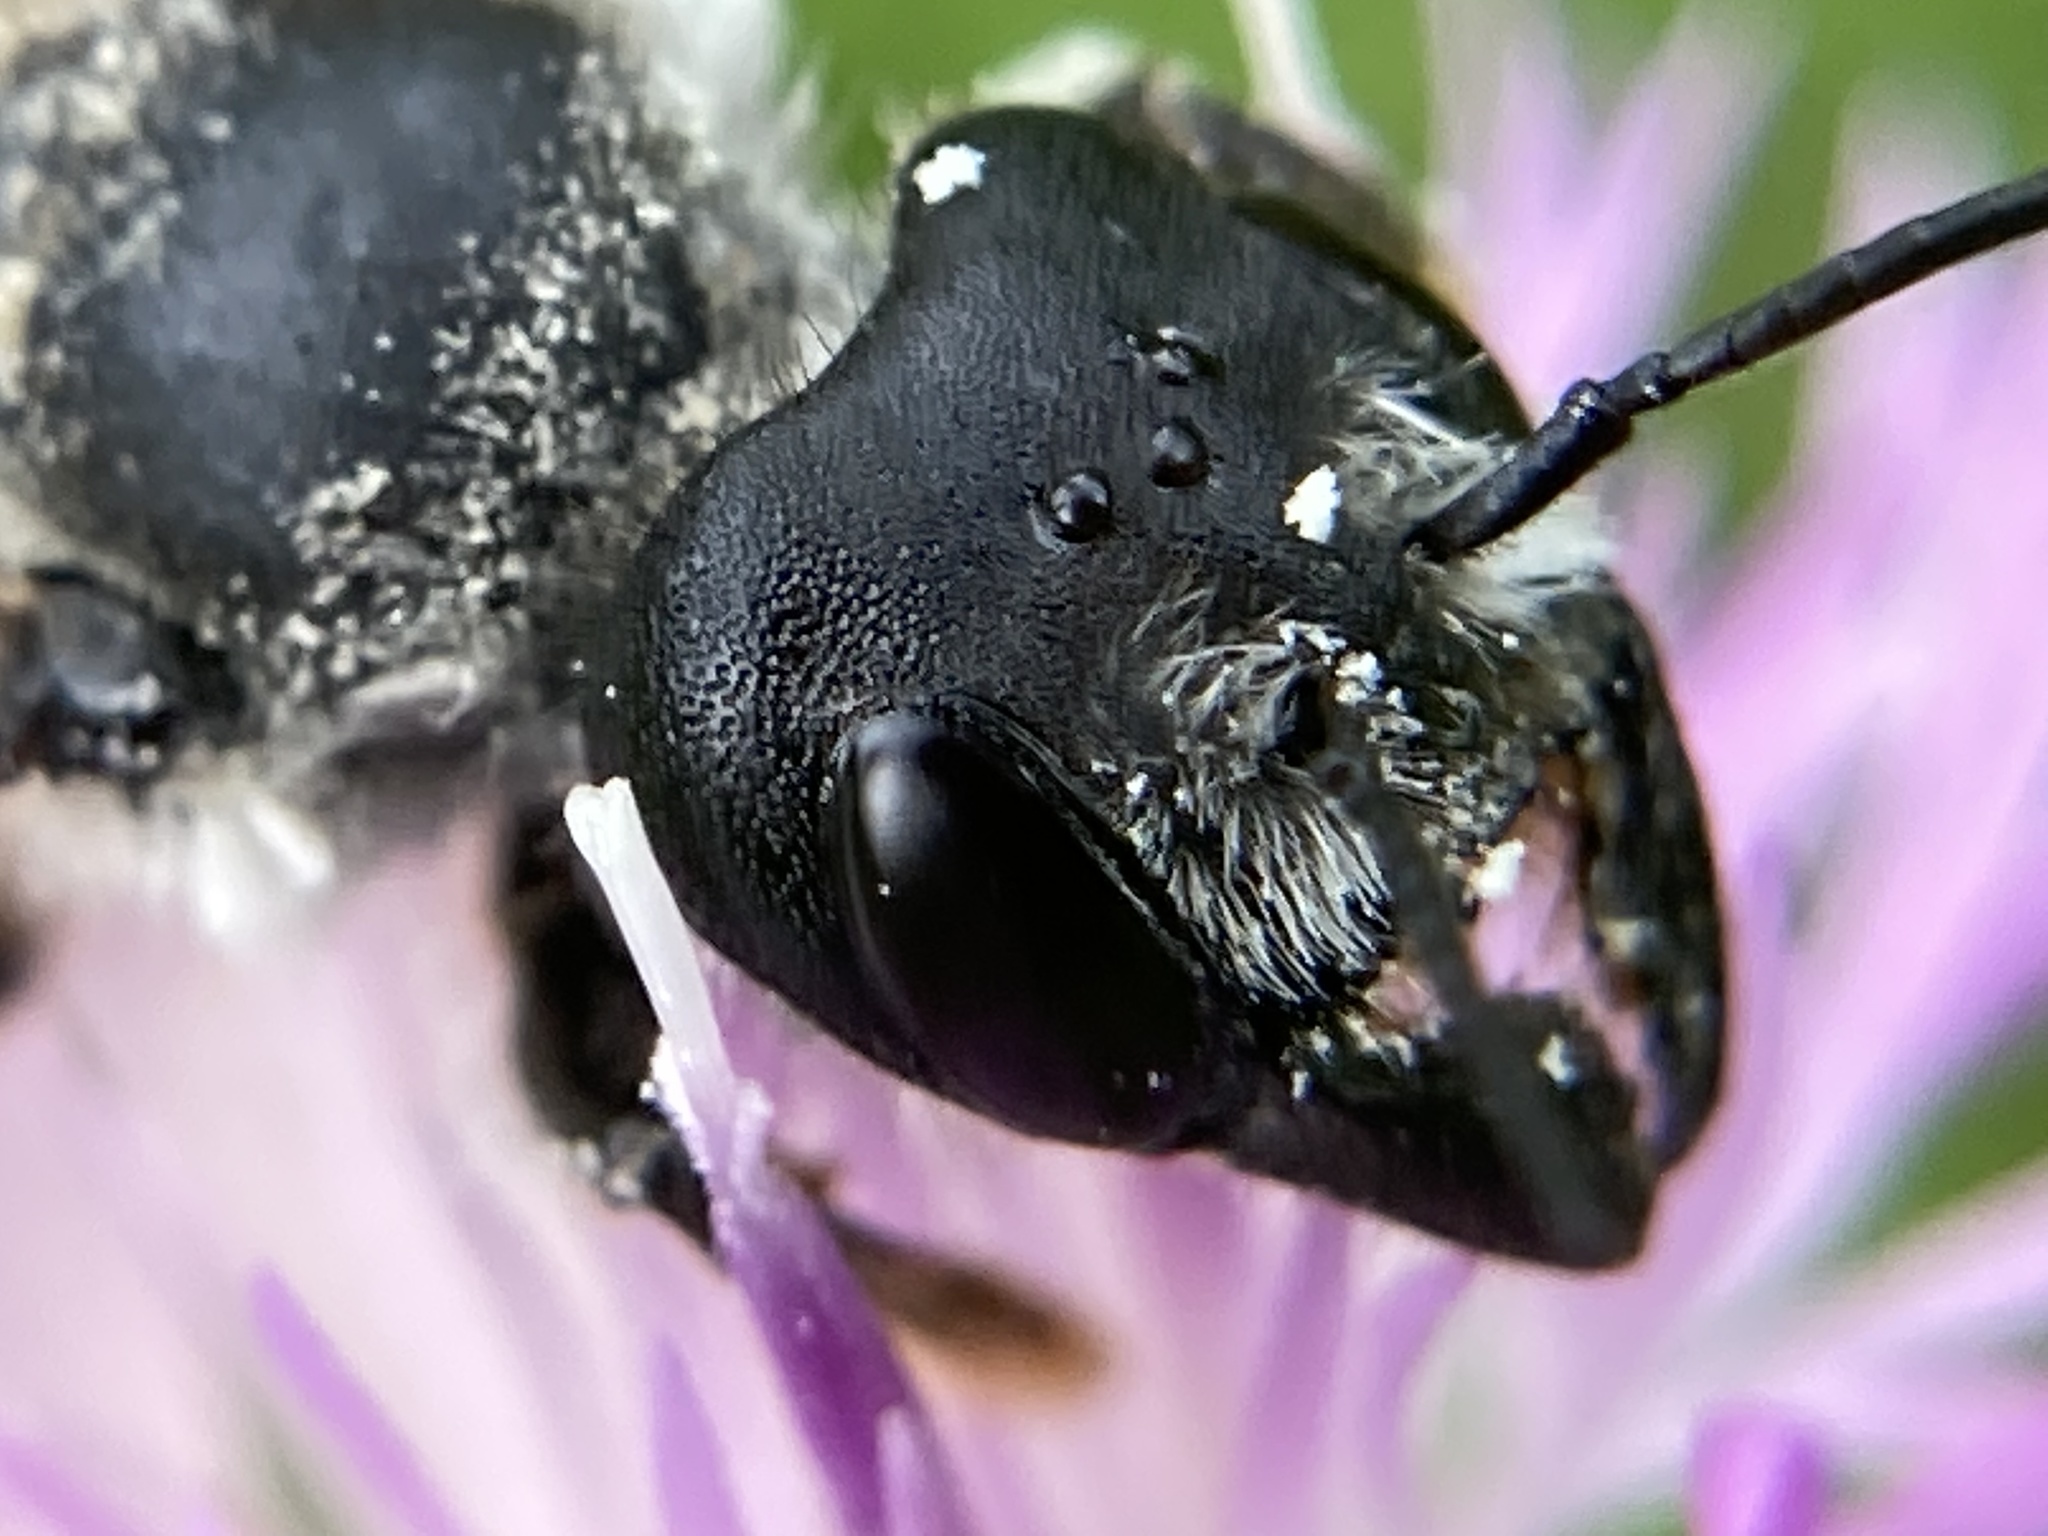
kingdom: Animalia
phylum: Arthropoda
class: Insecta
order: Hymenoptera
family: Megachilidae
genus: Megachile
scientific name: Megachile pugnata
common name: Pugnacious leafcutter bee
